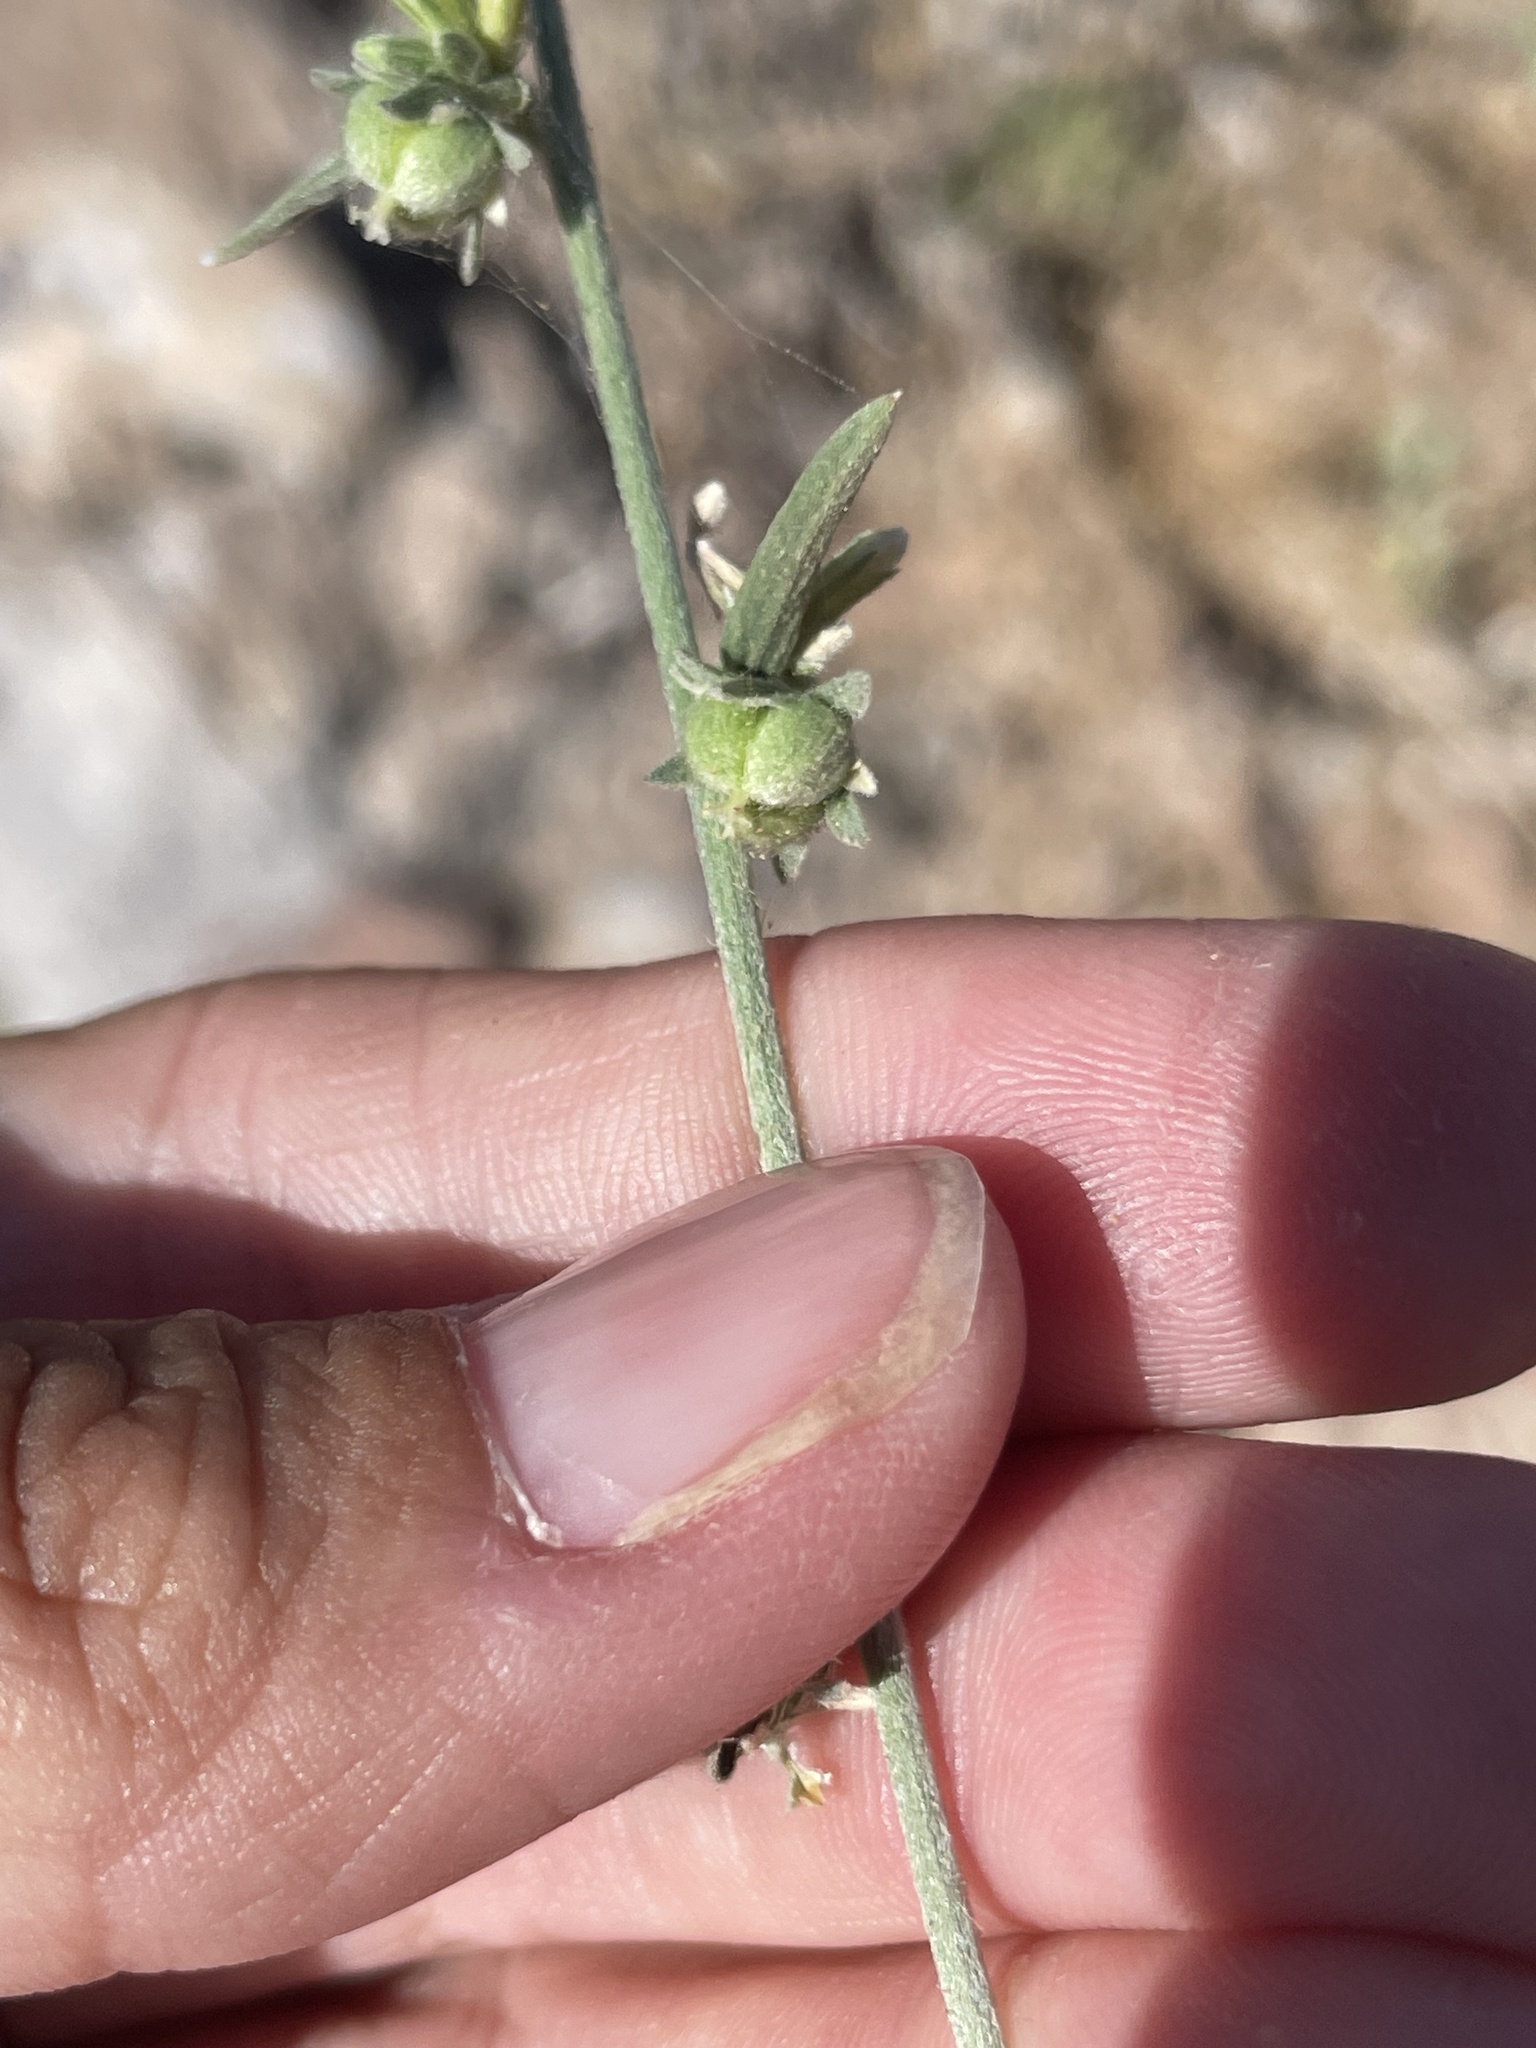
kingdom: Plantae
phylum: Tracheophyta
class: Magnoliopsida
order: Malpighiales
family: Euphorbiaceae
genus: Ditaxis
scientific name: Ditaxis lanceolata
